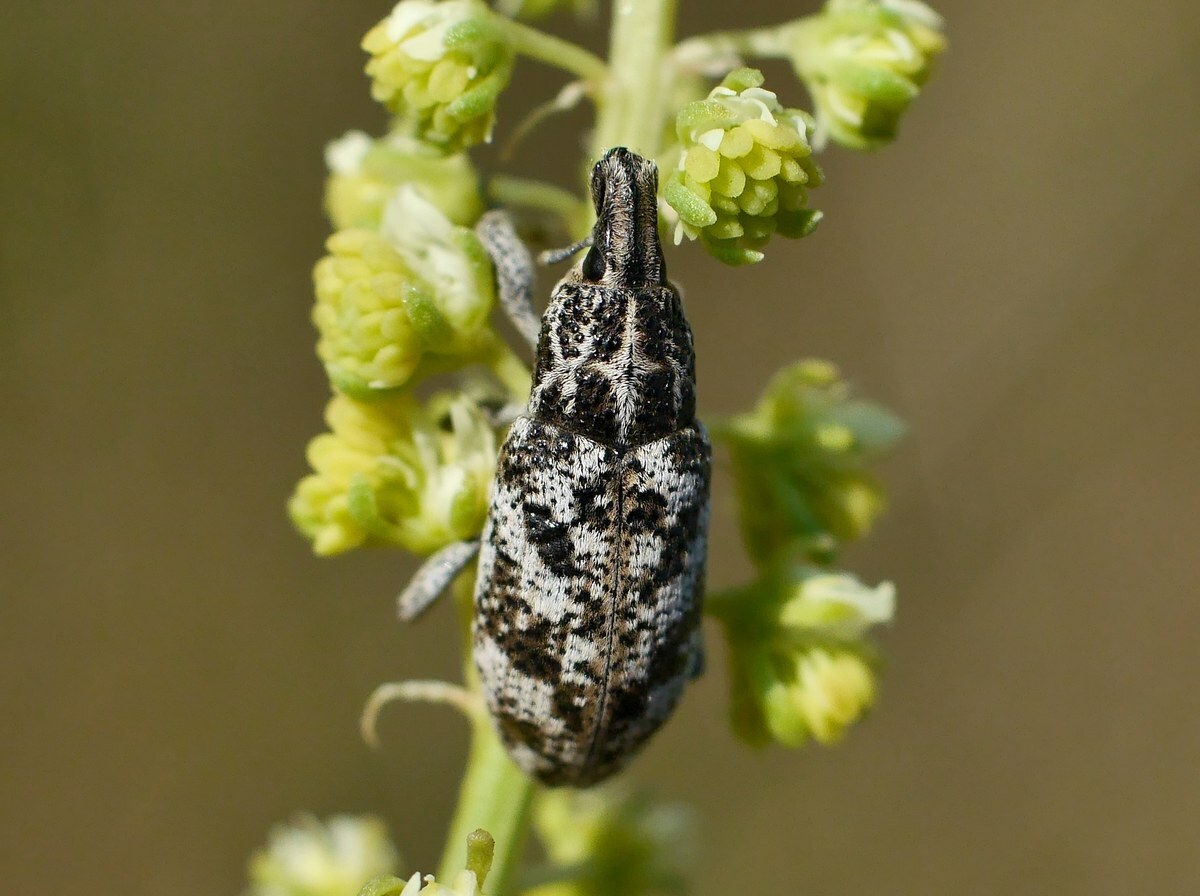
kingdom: Animalia
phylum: Arthropoda
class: Insecta
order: Coleoptera
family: Curculionidae
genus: Cyphocleonus
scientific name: Cyphocleonus dealbatus
